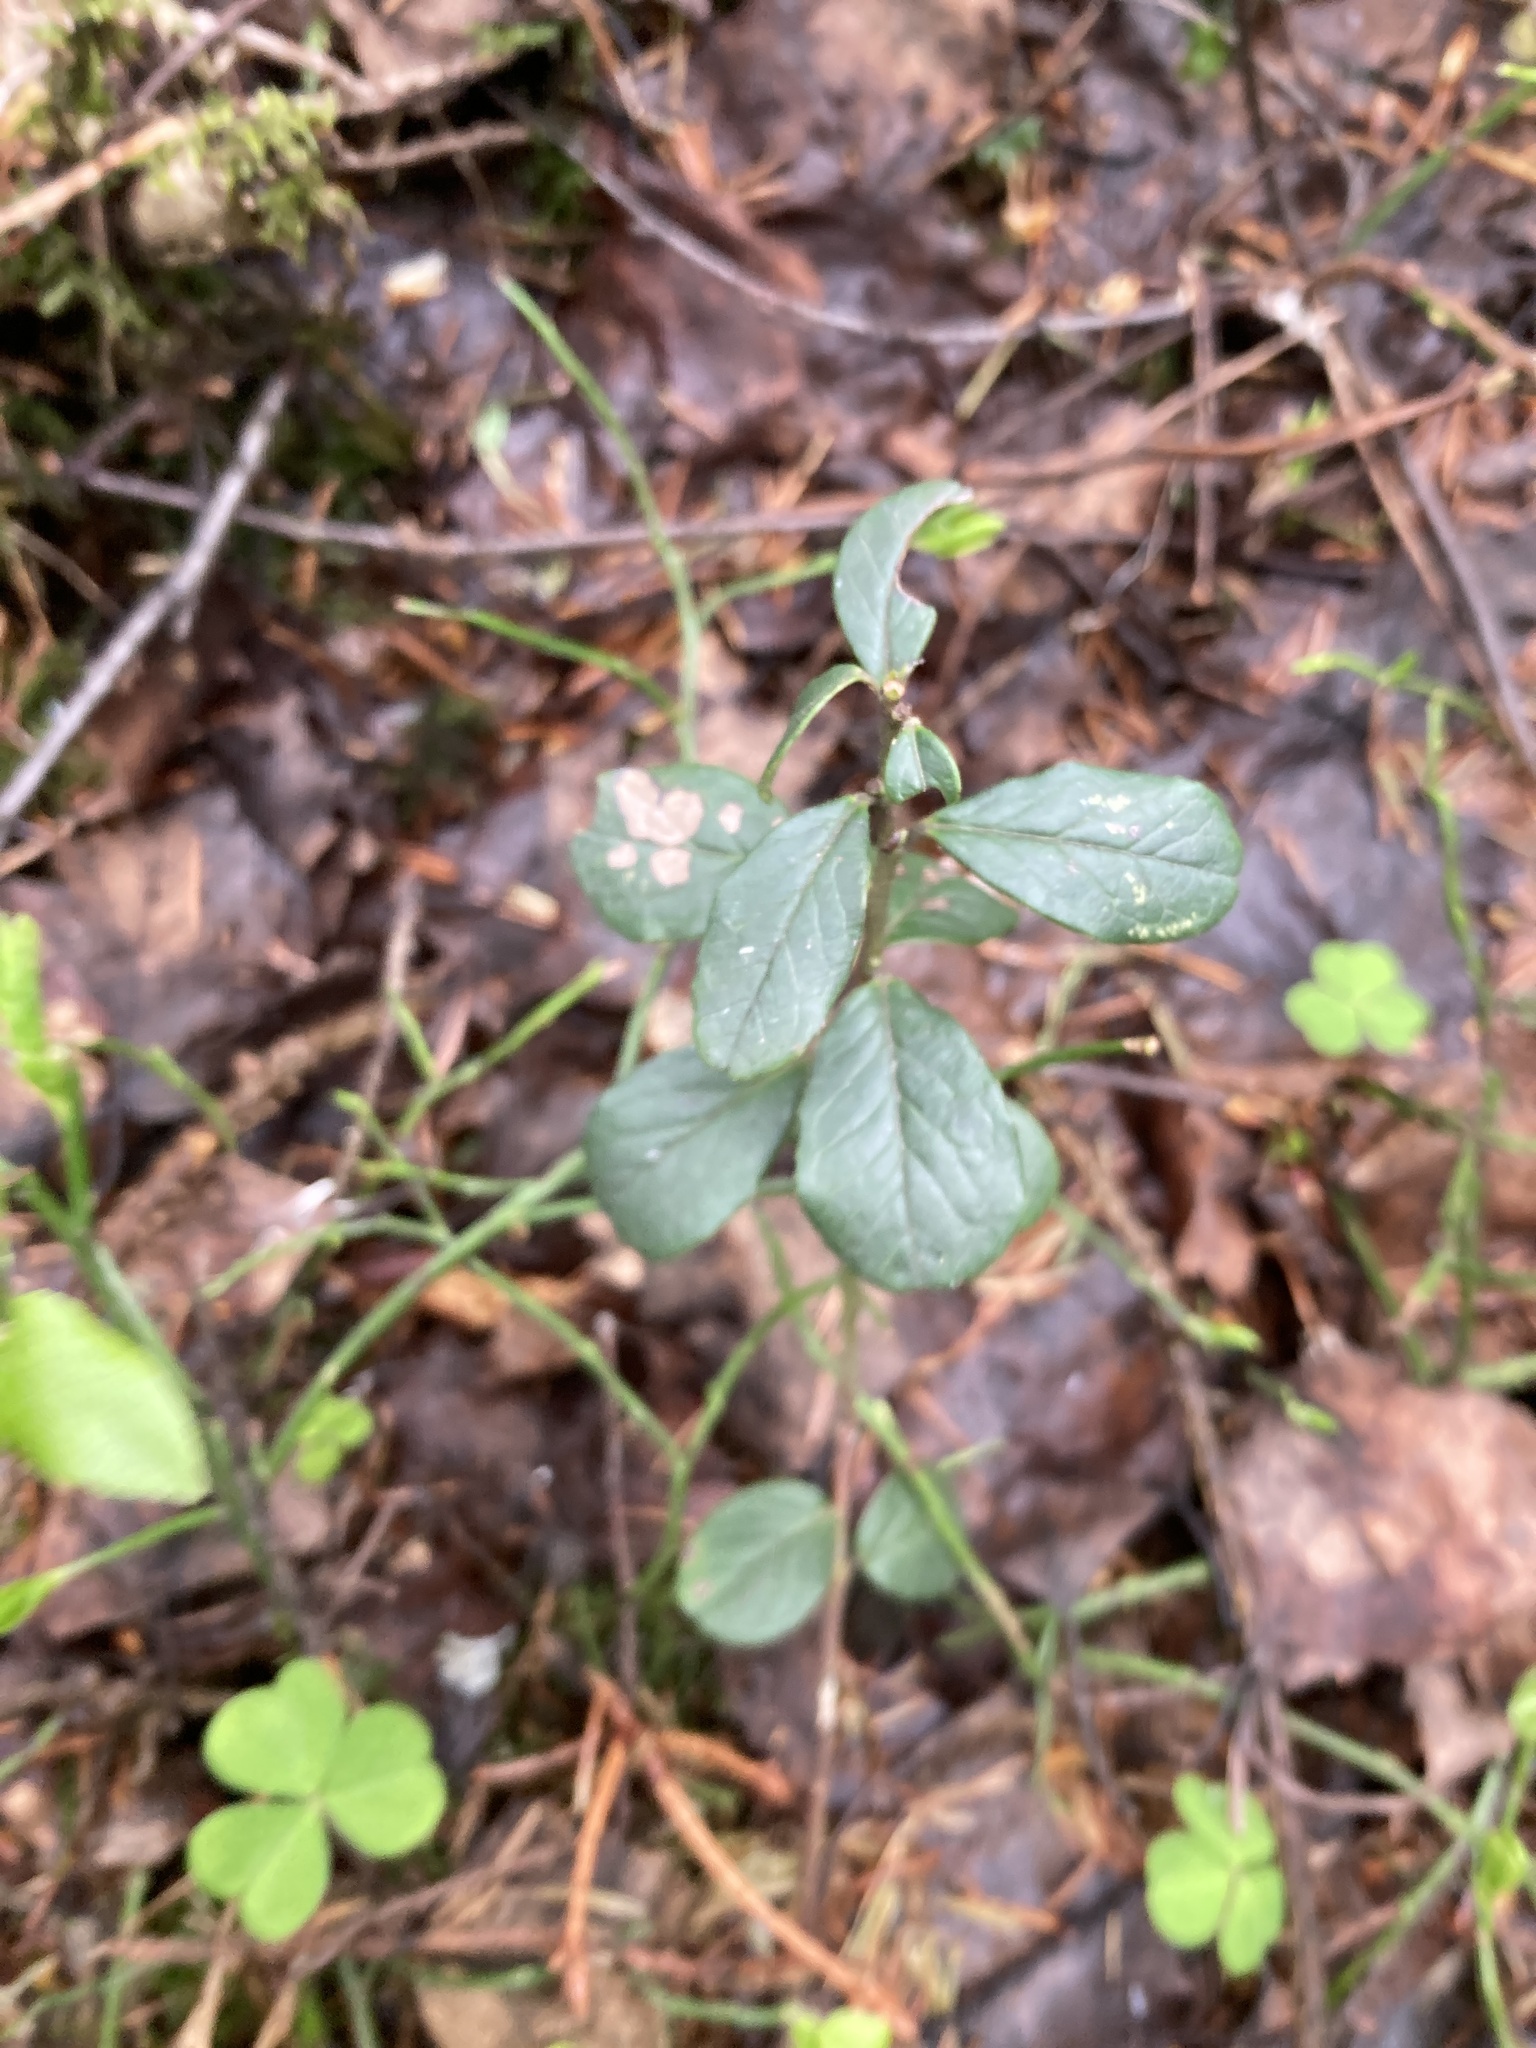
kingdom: Plantae
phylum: Tracheophyta
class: Magnoliopsida
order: Ericales
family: Ericaceae
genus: Vaccinium
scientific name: Vaccinium vitis-idaea
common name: Cowberry
